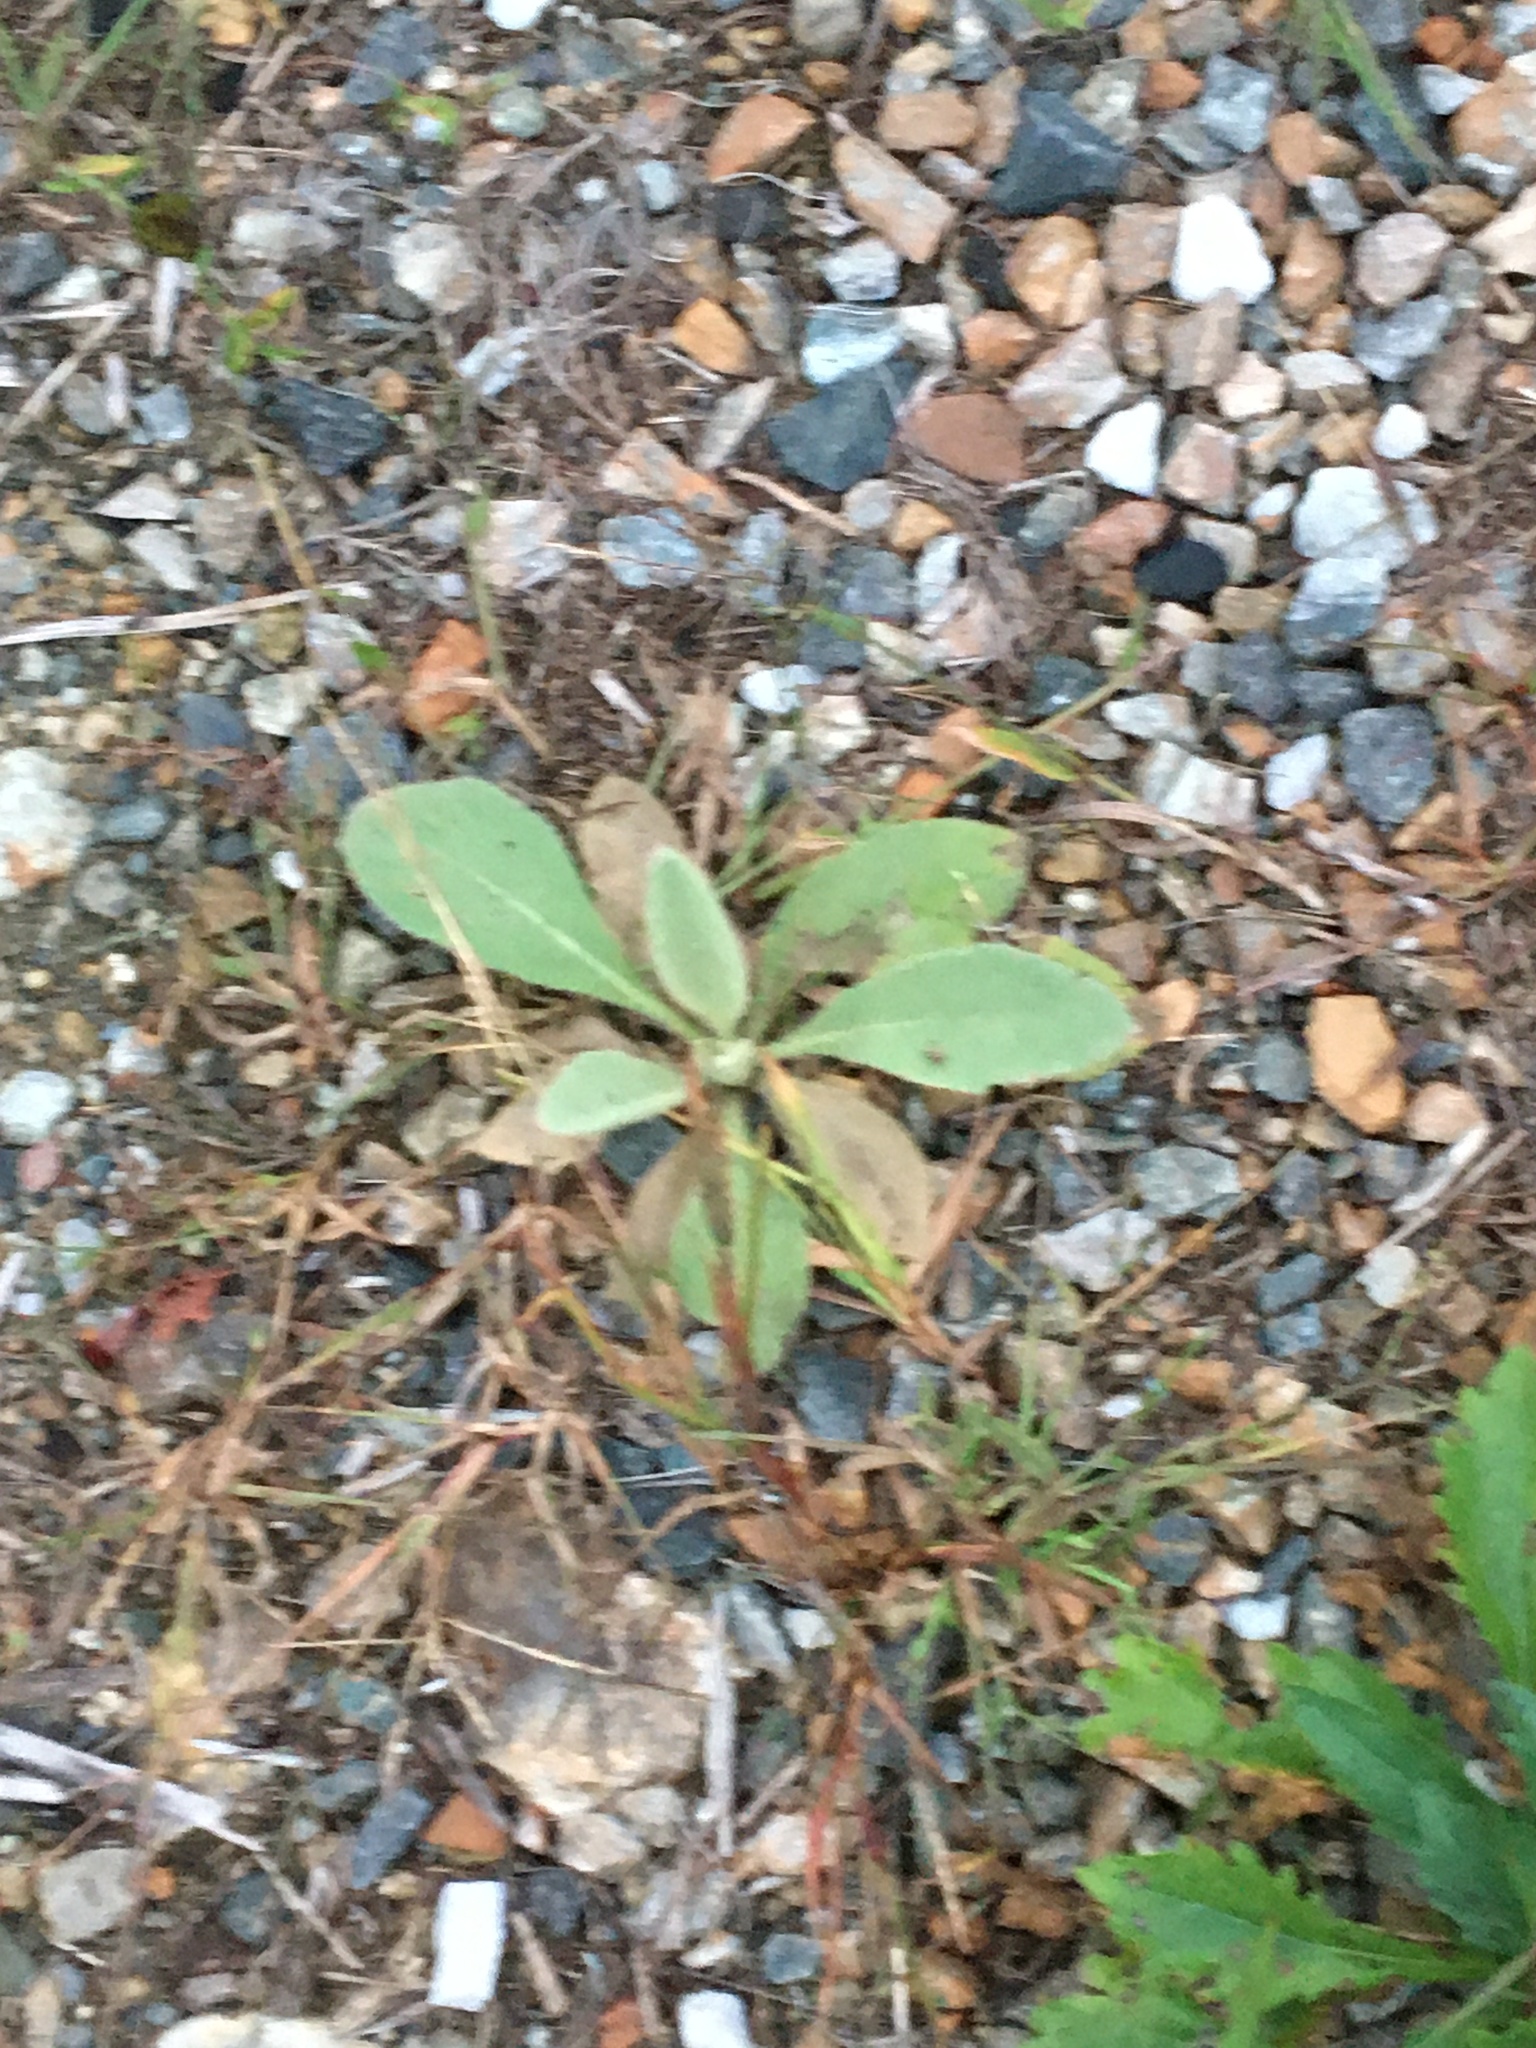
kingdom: Plantae
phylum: Tracheophyta
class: Magnoliopsida
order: Lamiales
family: Scrophulariaceae
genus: Verbascum
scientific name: Verbascum thapsus
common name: Common mullein
